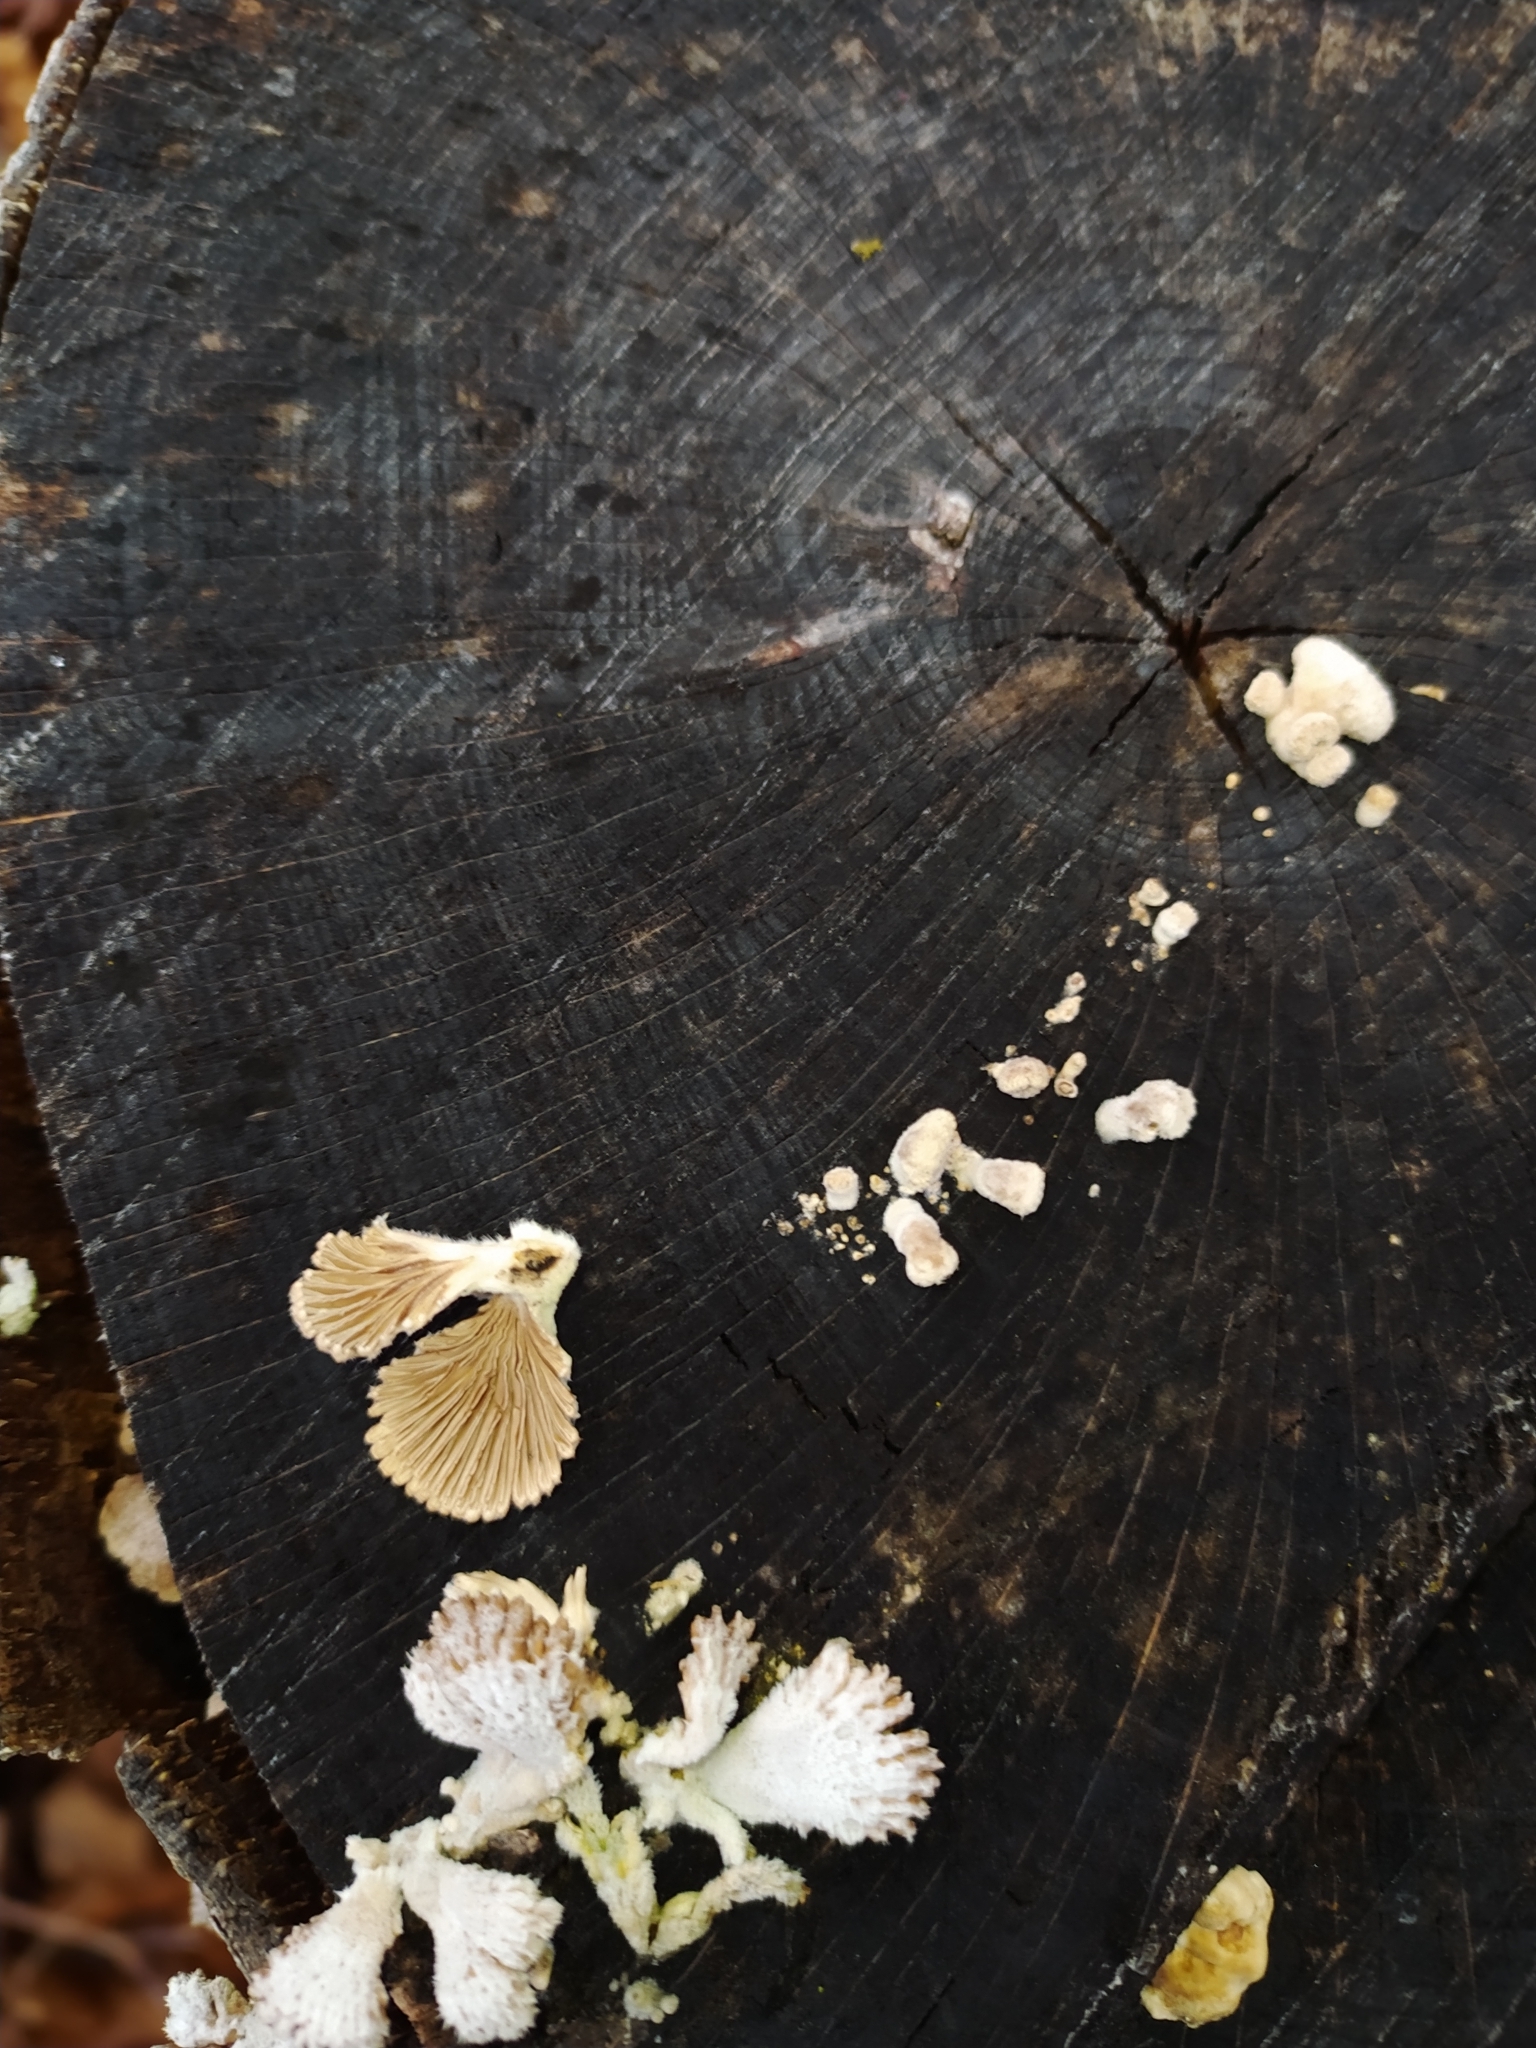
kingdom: Fungi
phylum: Basidiomycota
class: Agaricomycetes
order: Agaricales
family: Schizophyllaceae
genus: Schizophyllum
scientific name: Schizophyllum commune
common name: Common porecrust
